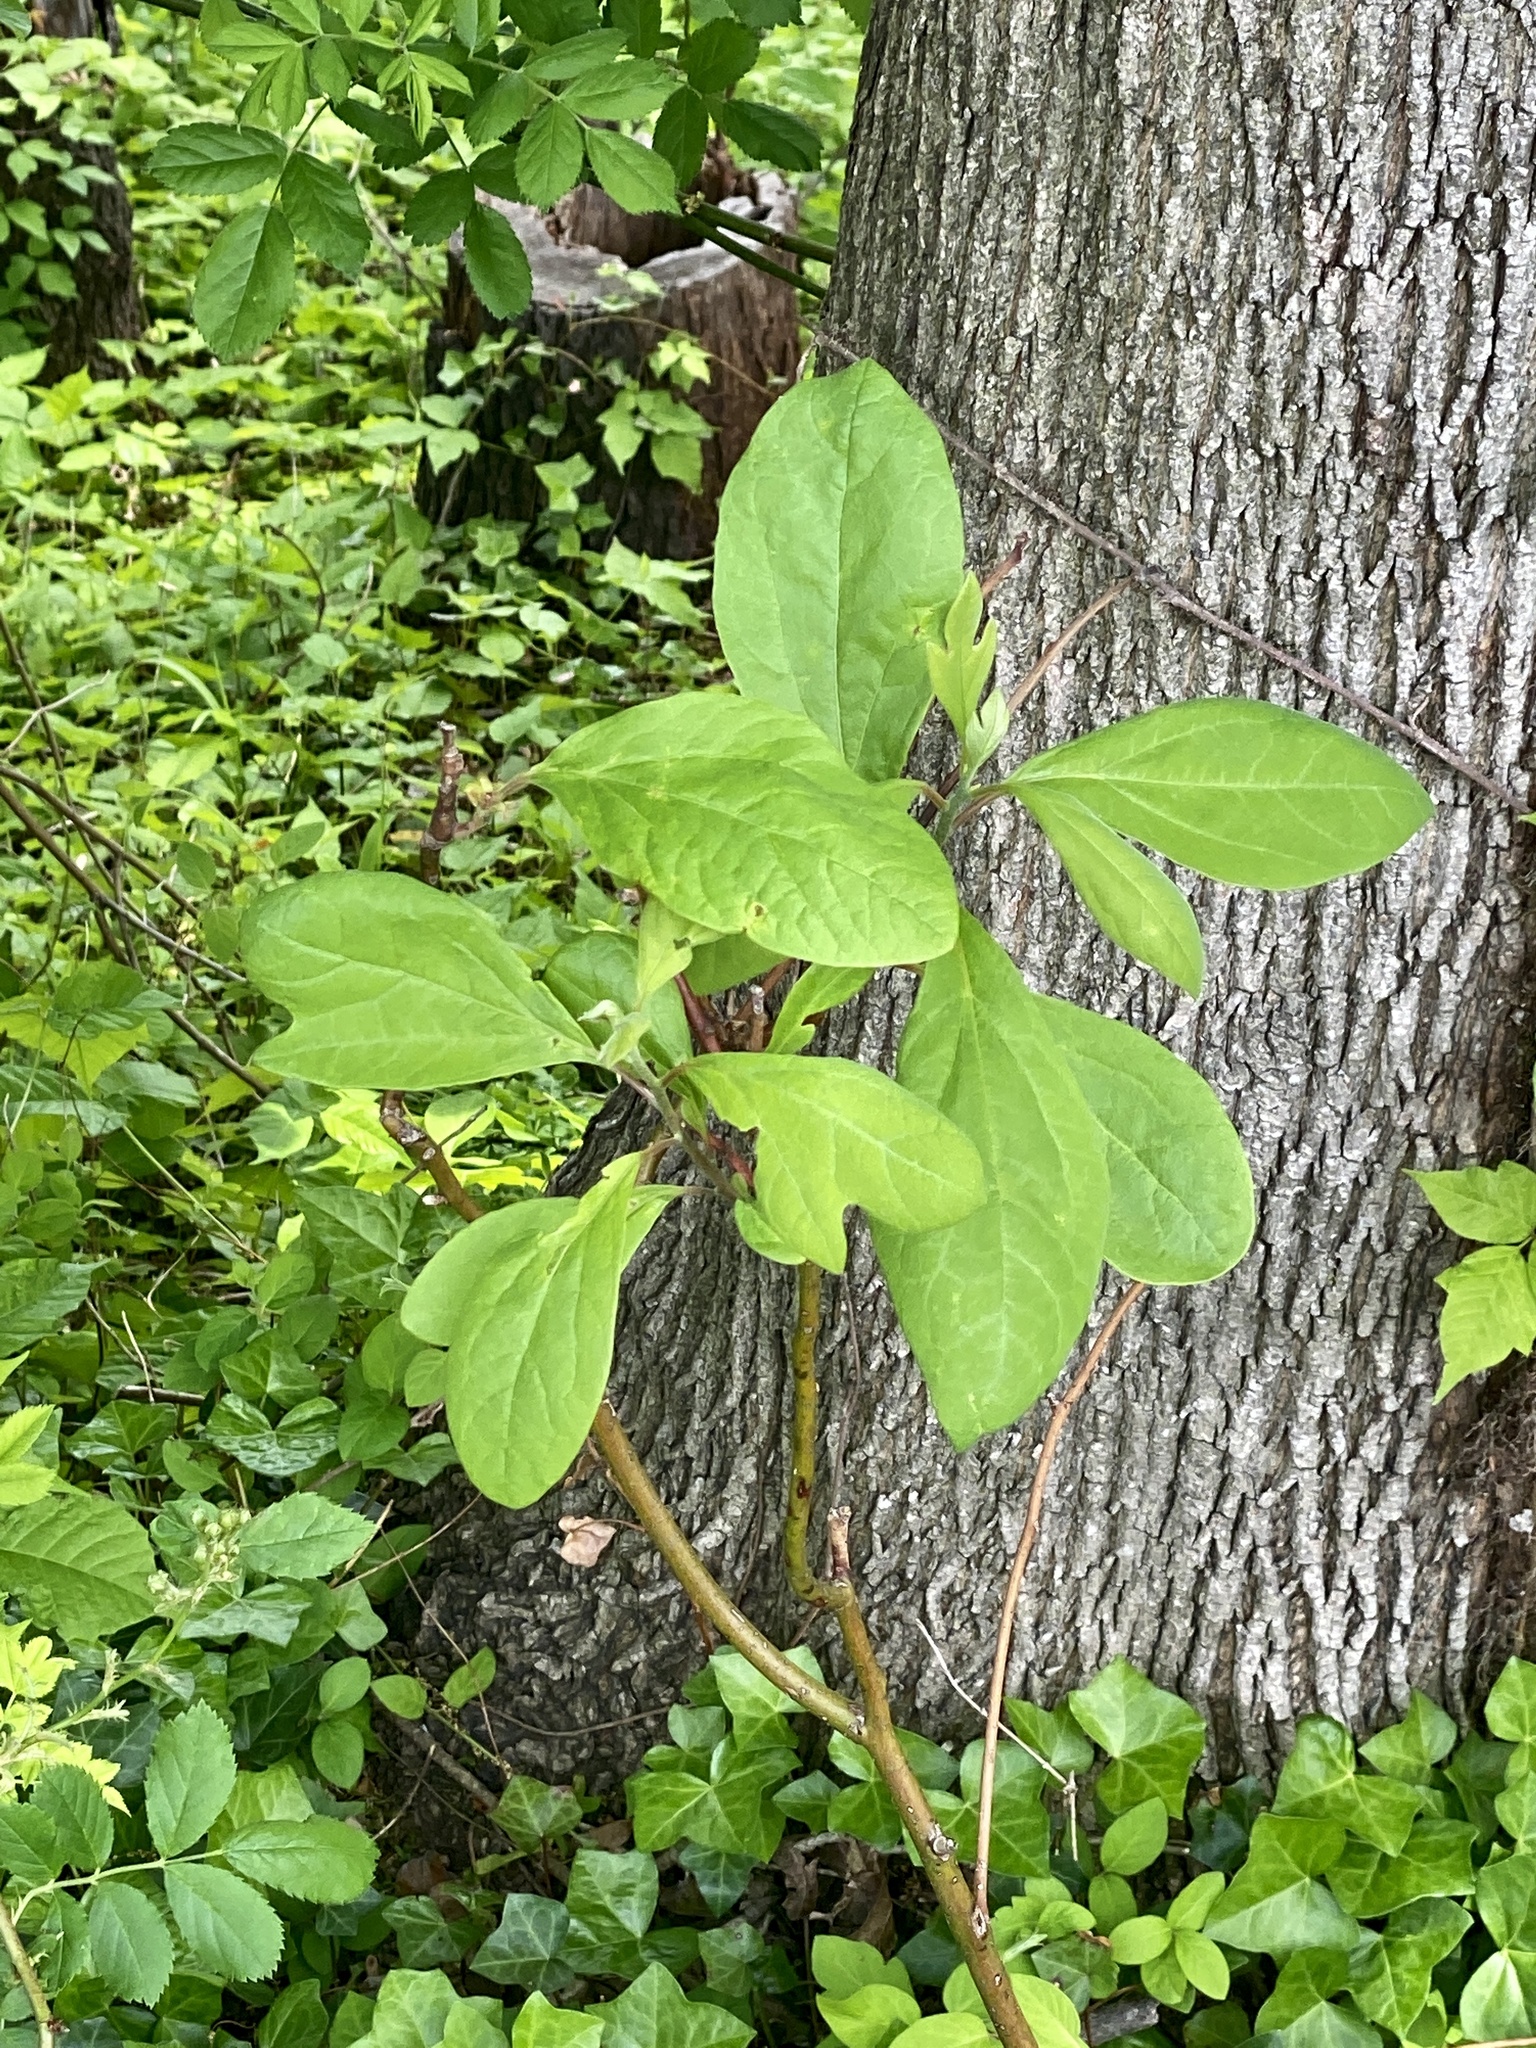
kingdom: Plantae
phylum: Tracheophyta
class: Magnoliopsida
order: Laurales
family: Lauraceae
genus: Sassafras
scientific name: Sassafras albidum
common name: Sassafras
